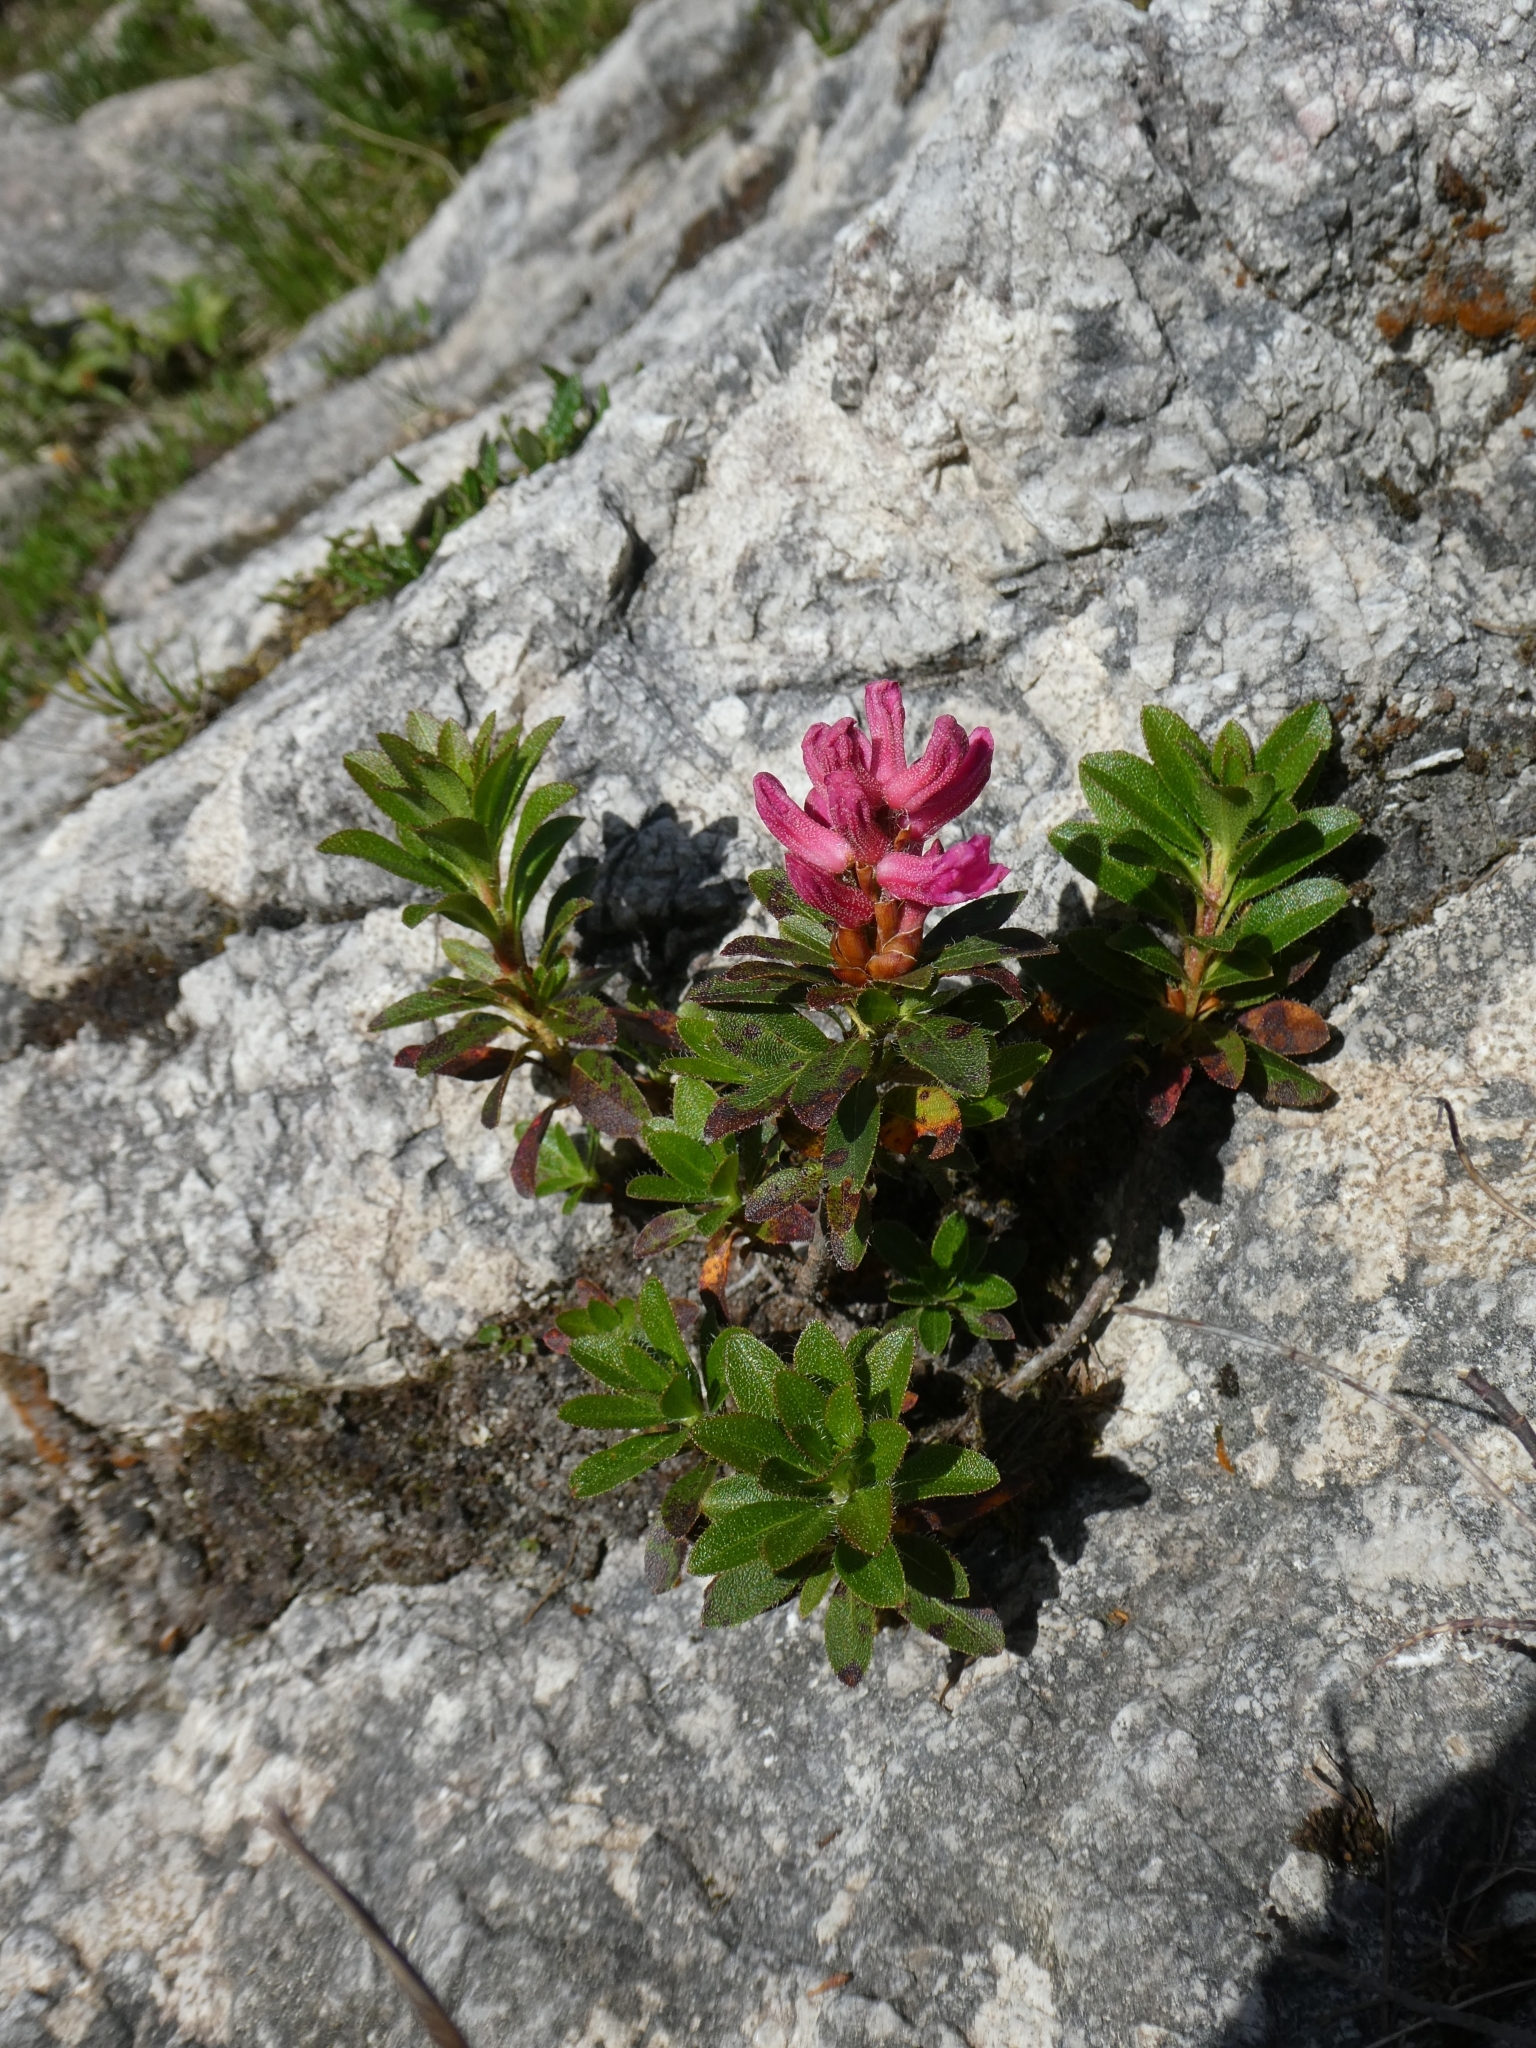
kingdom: Plantae
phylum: Tracheophyta
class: Magnoliopsida
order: Ericales
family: Ericaceae
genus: Rhododendron
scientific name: Rhododendron hirsutum
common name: Hairy alpenrose
